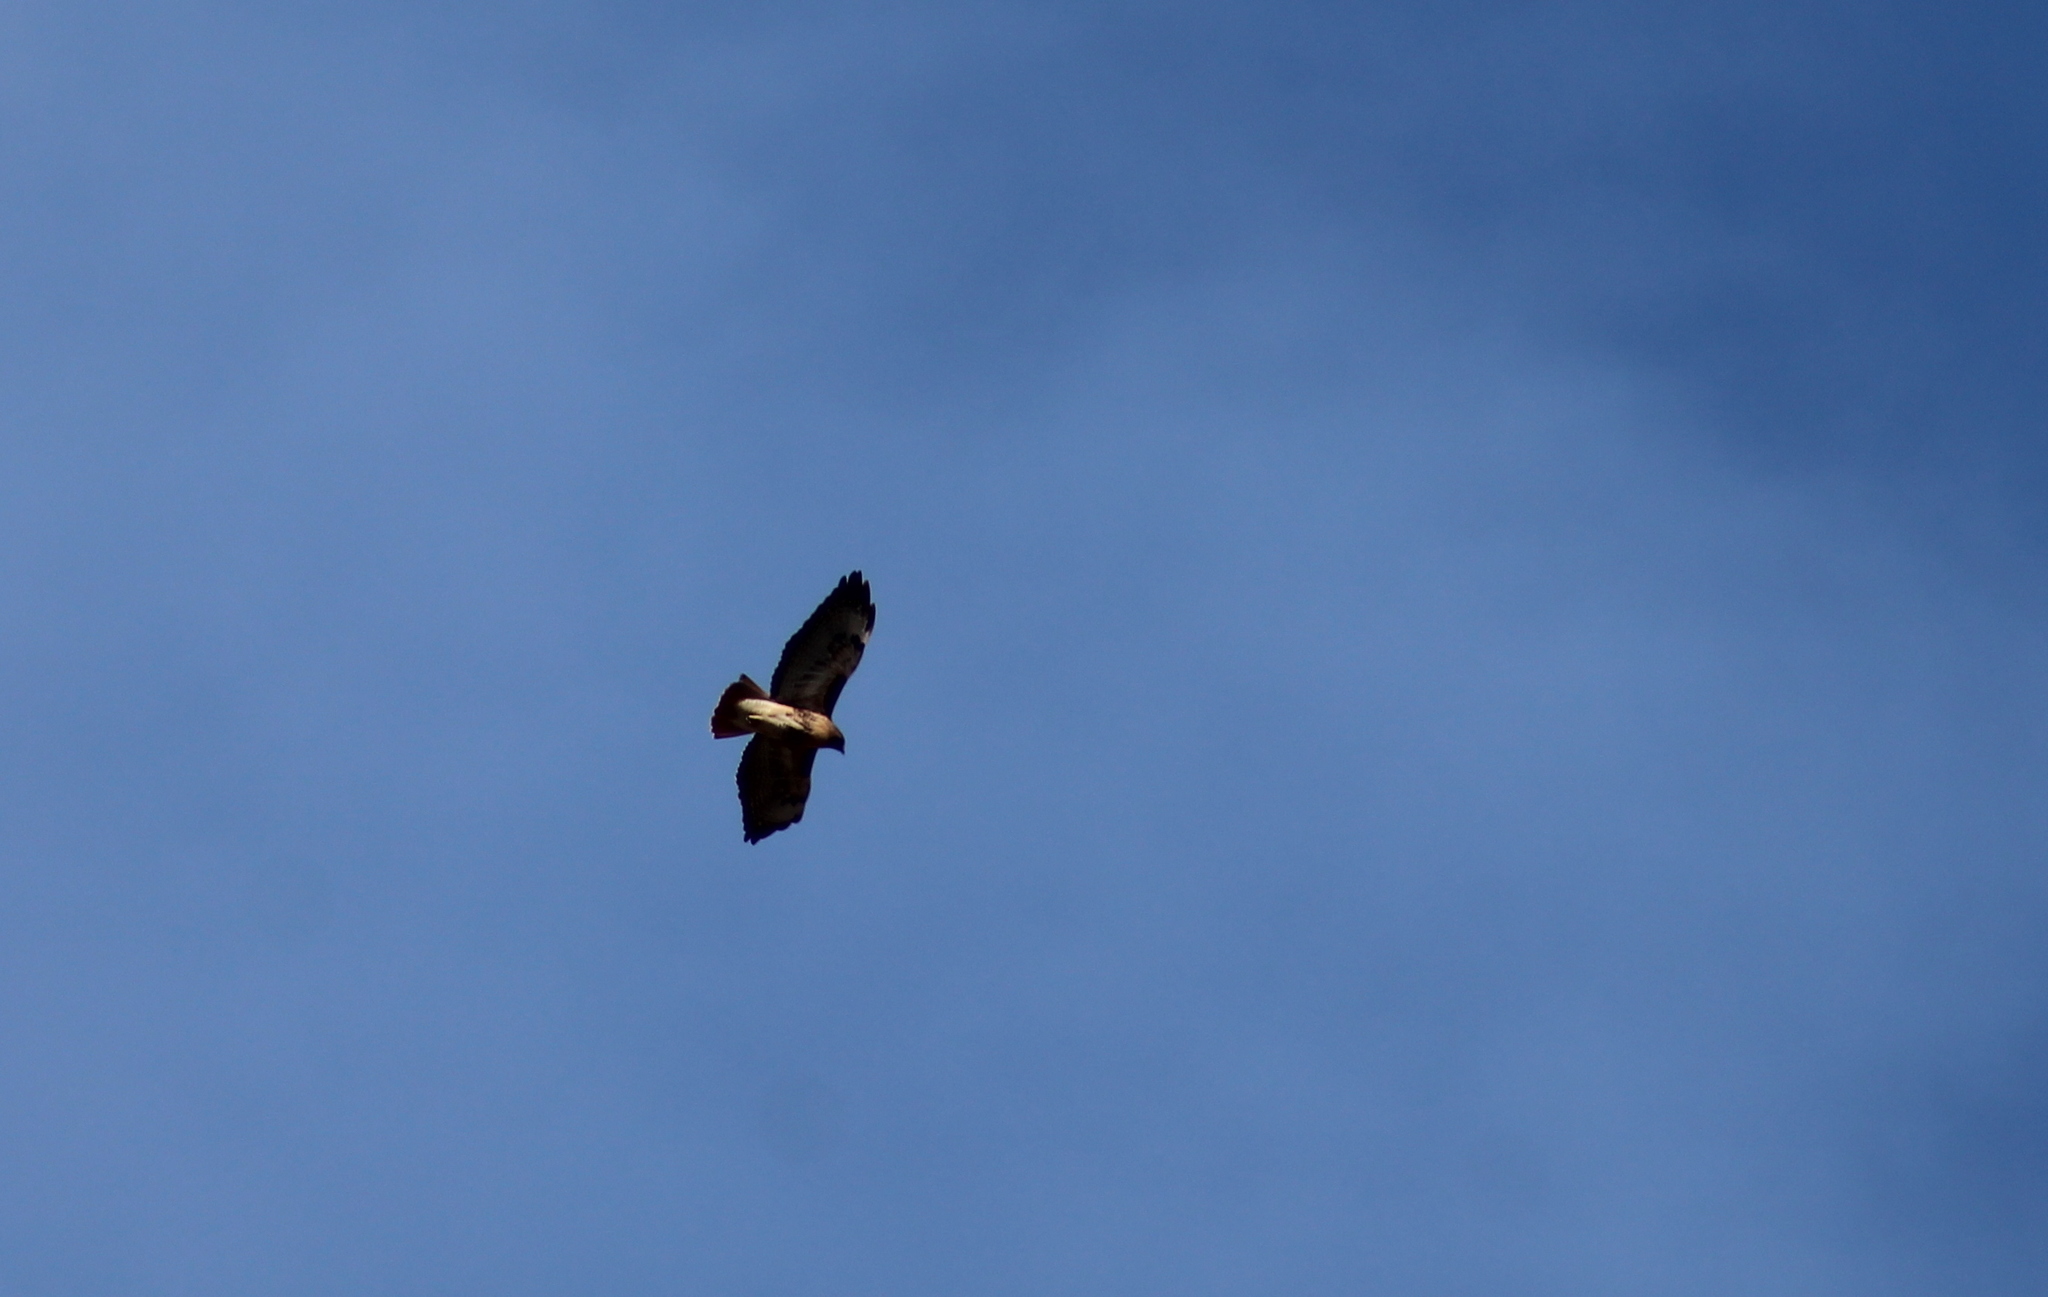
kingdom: Animalia
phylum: Chordata
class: Aves
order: Accipitriformes
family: Accipitridae
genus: Buteo
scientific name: Buteo jamaicensis
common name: Red-tailed hawk
